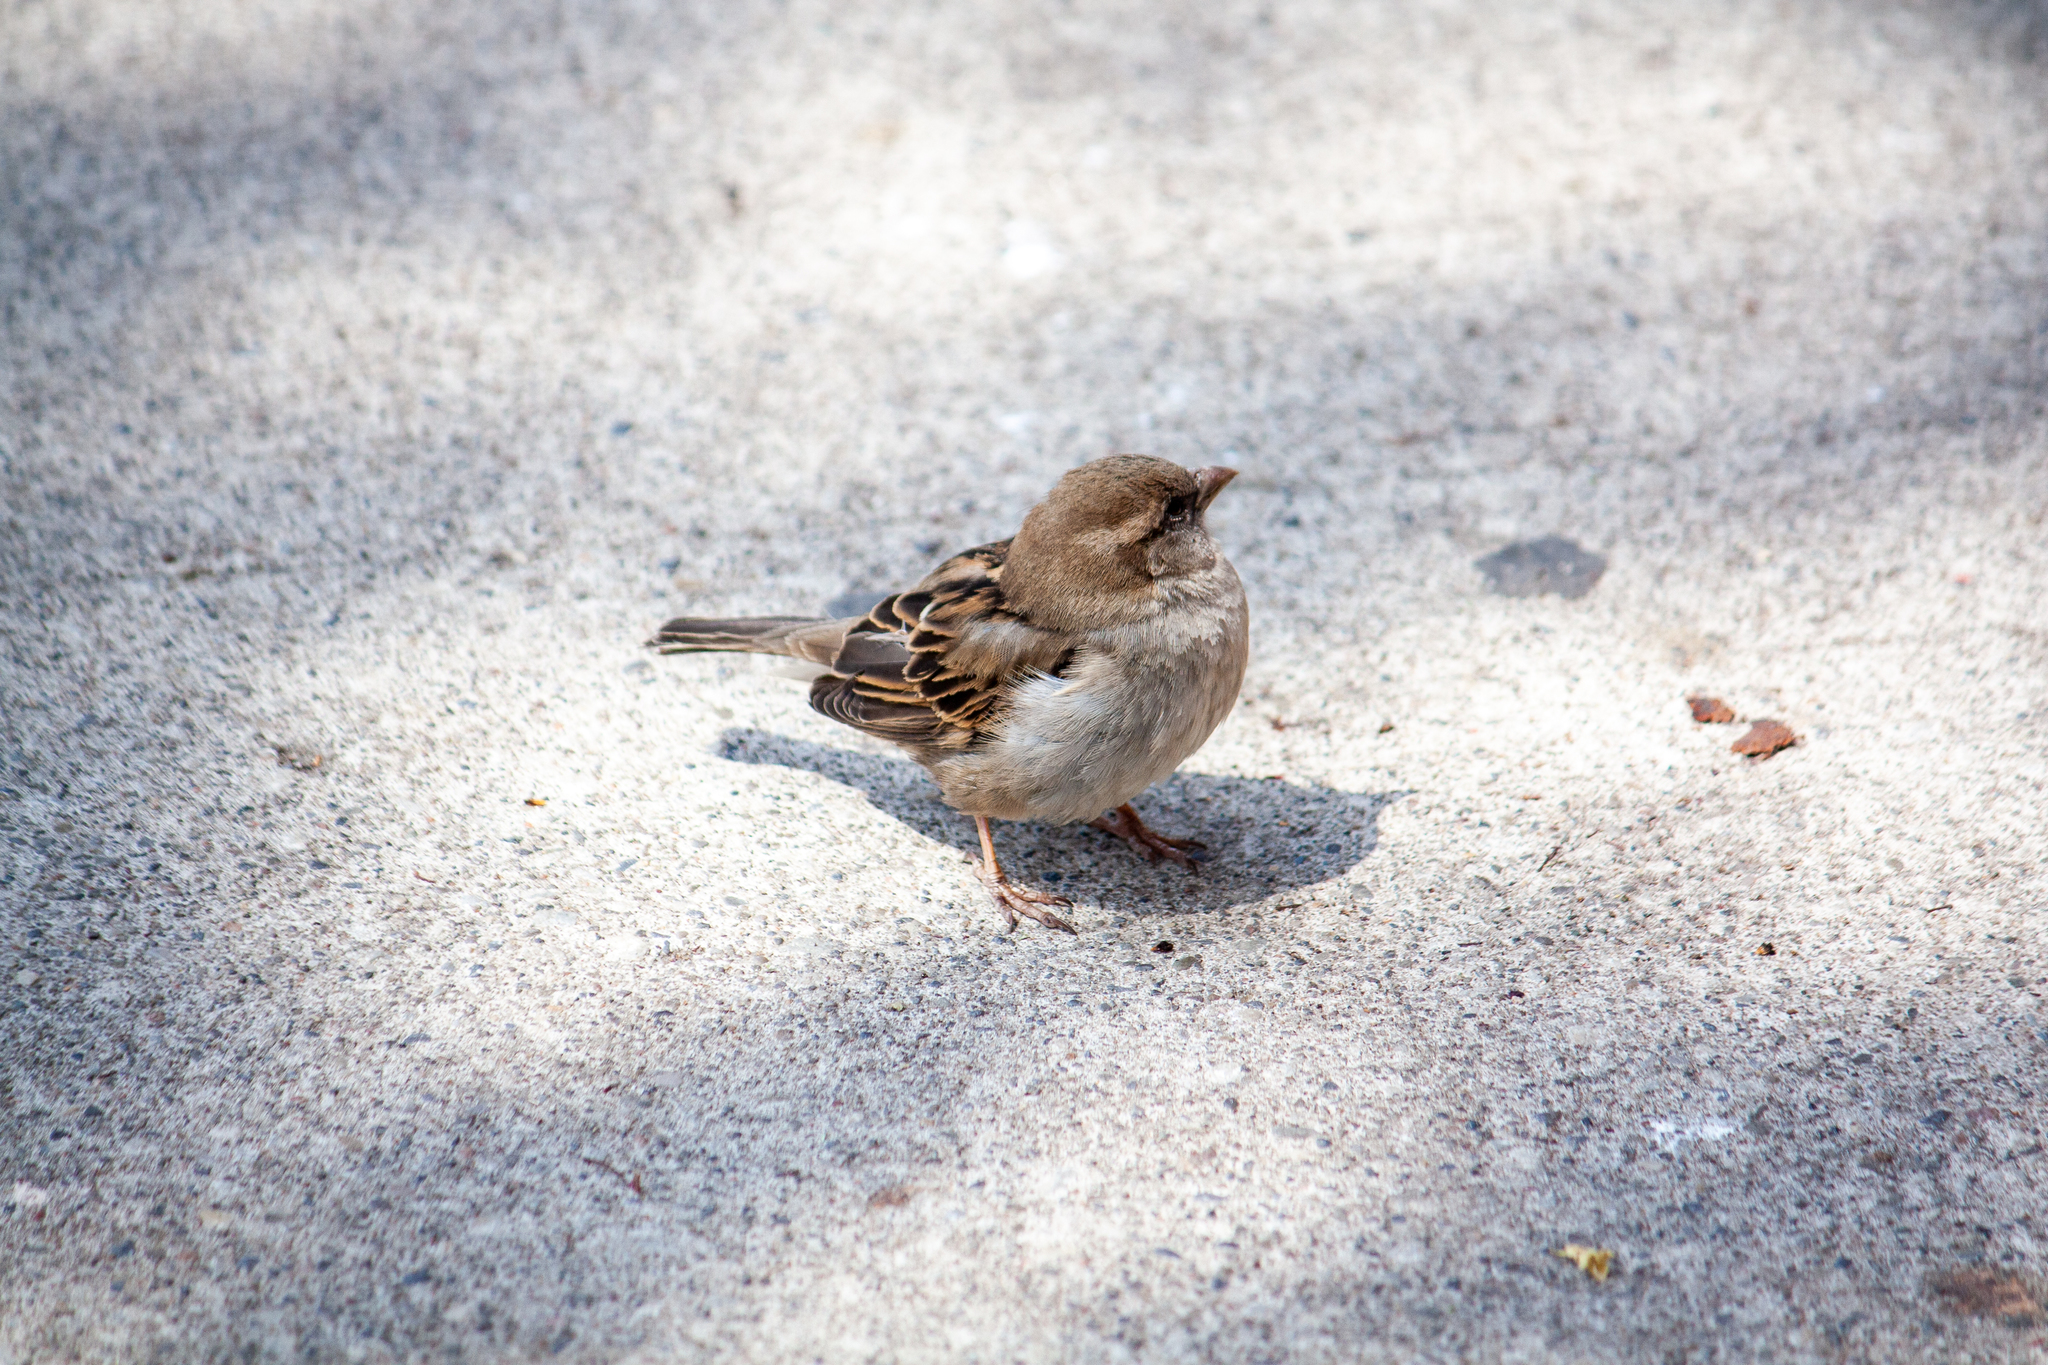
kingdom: Animalia
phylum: Chordata
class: Aves
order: Passeriformes
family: Passeridae
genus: Passer
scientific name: Passer domesticus
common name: House sparrow
